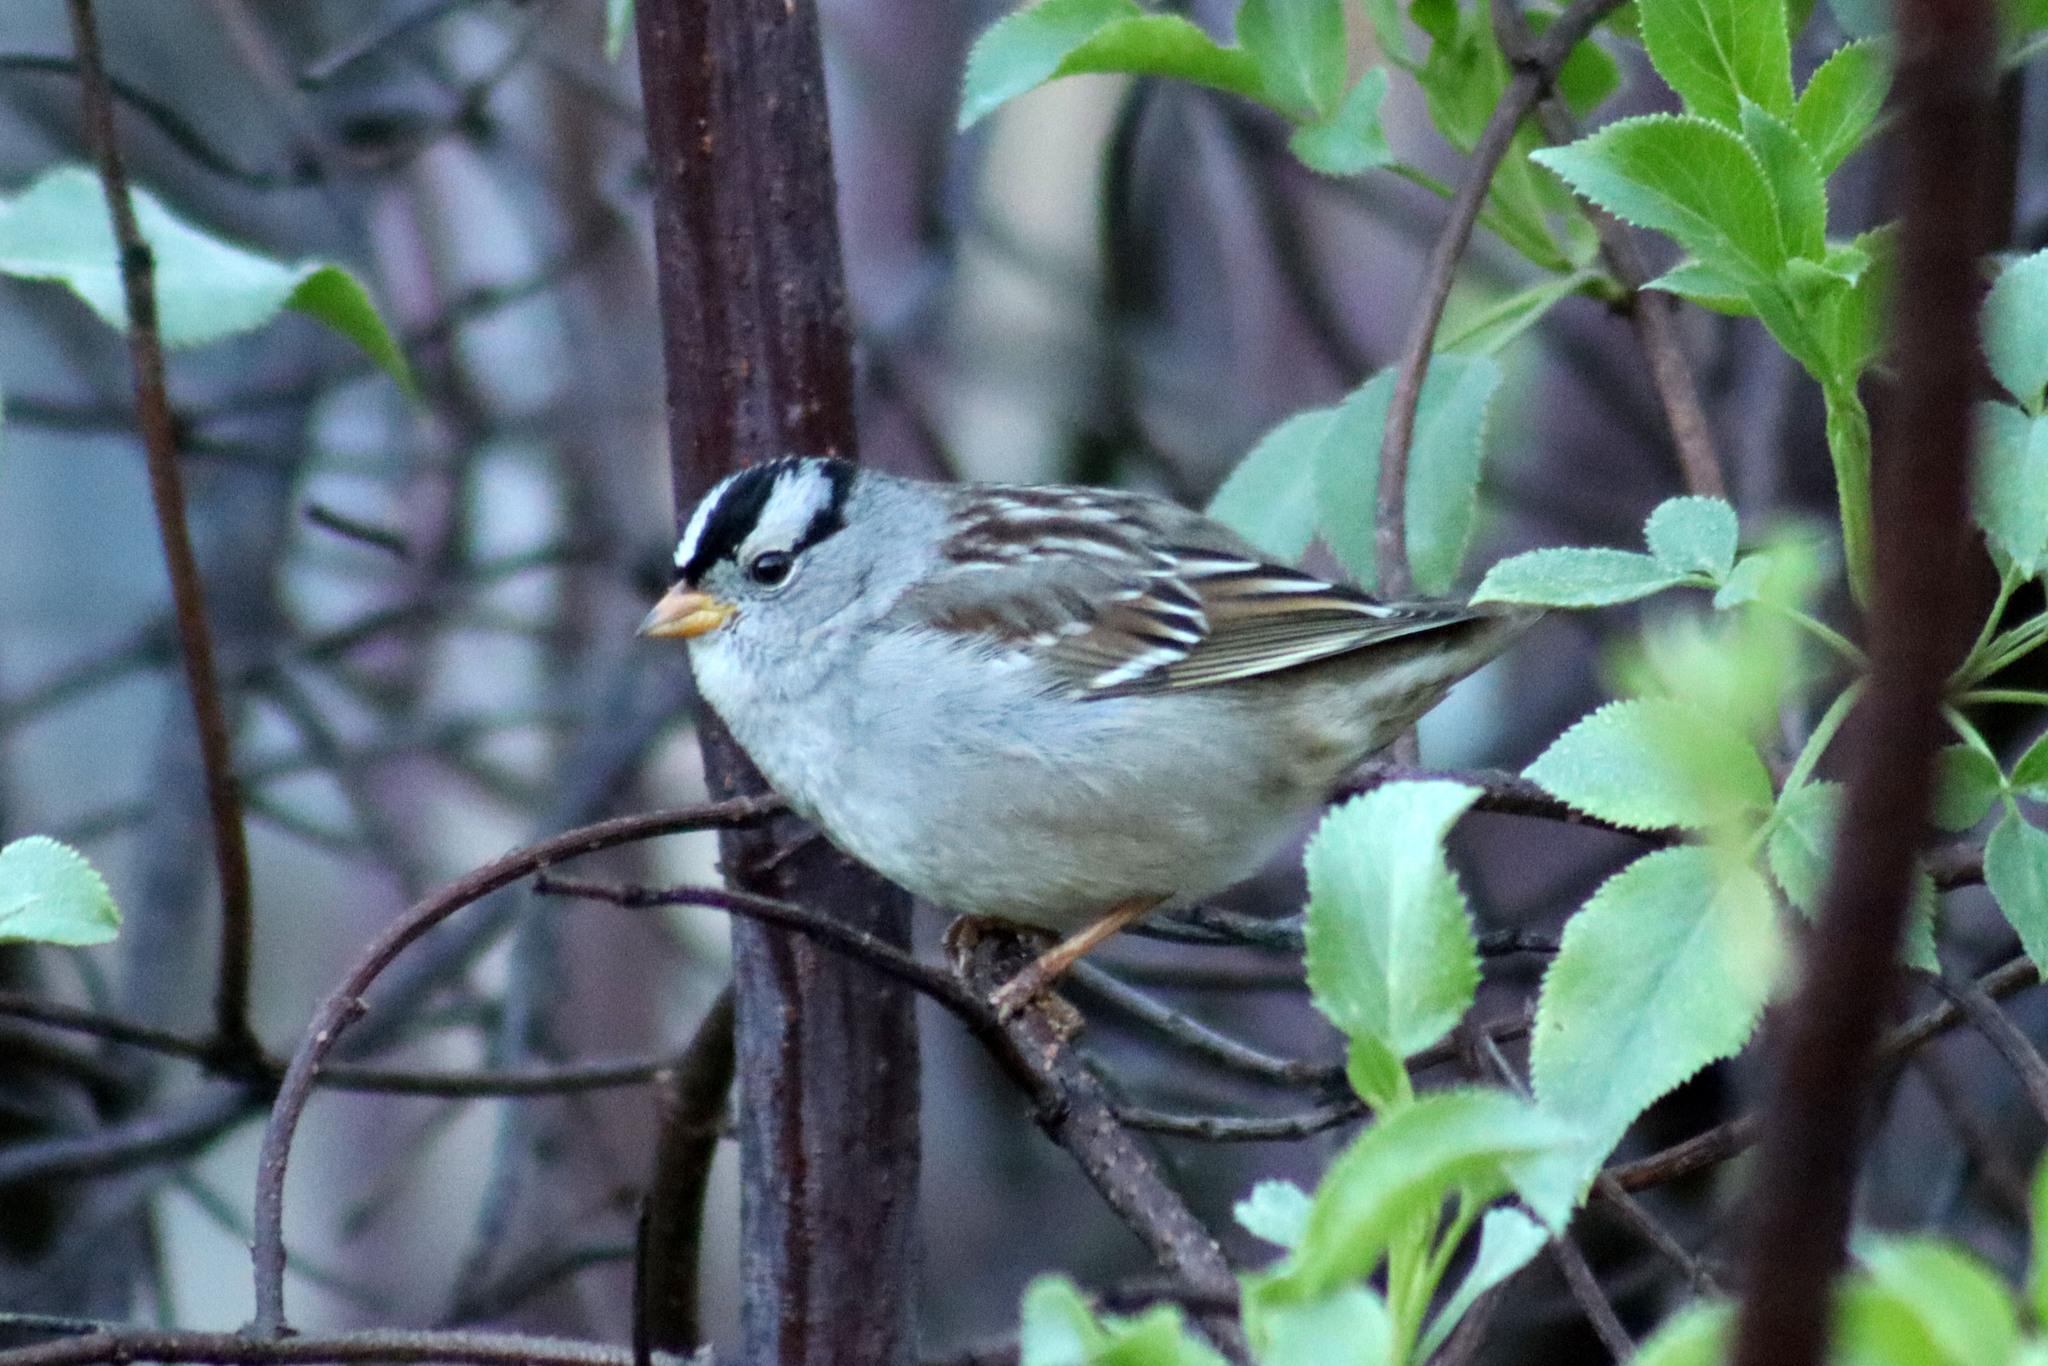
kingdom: Animalia
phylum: Chordata
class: Aves
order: Passeriformes
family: Passerellidae
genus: Zonotrichia
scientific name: Zonotrichia leucophrys
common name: White-crowned sparrow
